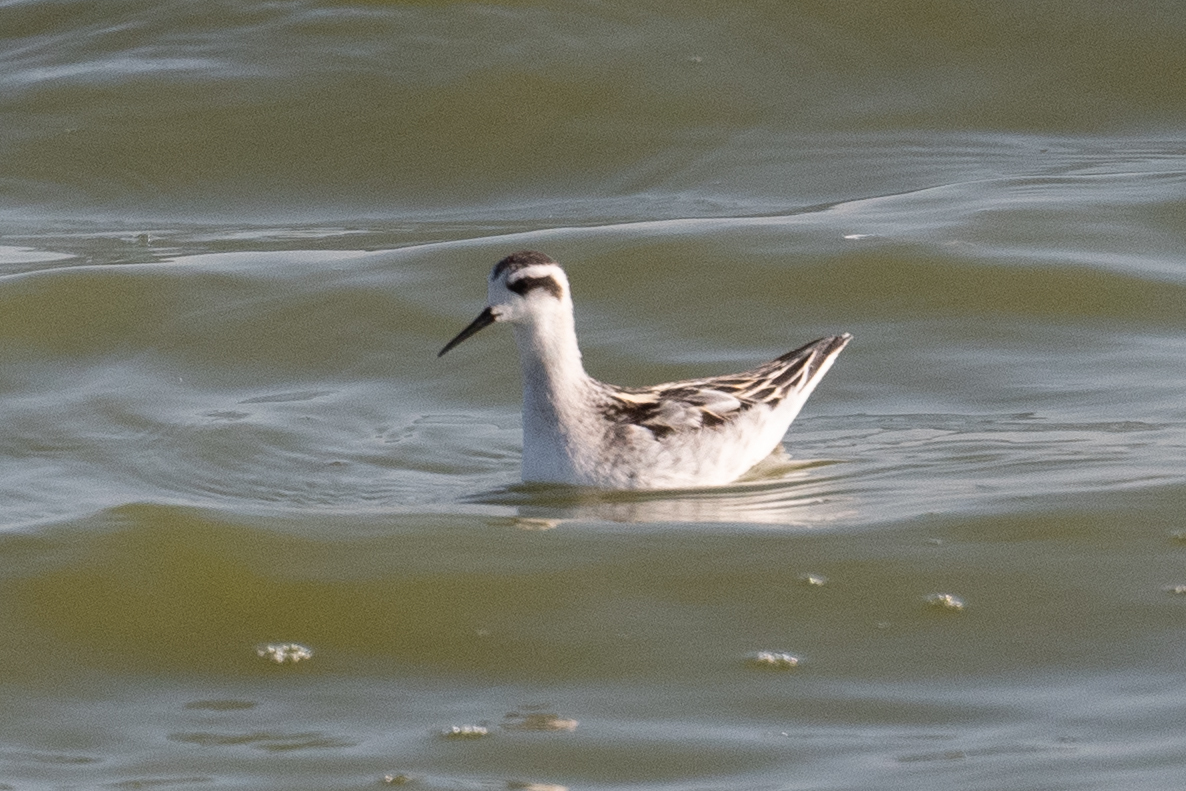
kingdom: Animalia
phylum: Chordata
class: Aves
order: Charadriiformes
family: Scolopacidae
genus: Phalaropus
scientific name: Phalaropus lobatus
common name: Red-necked phalarope
